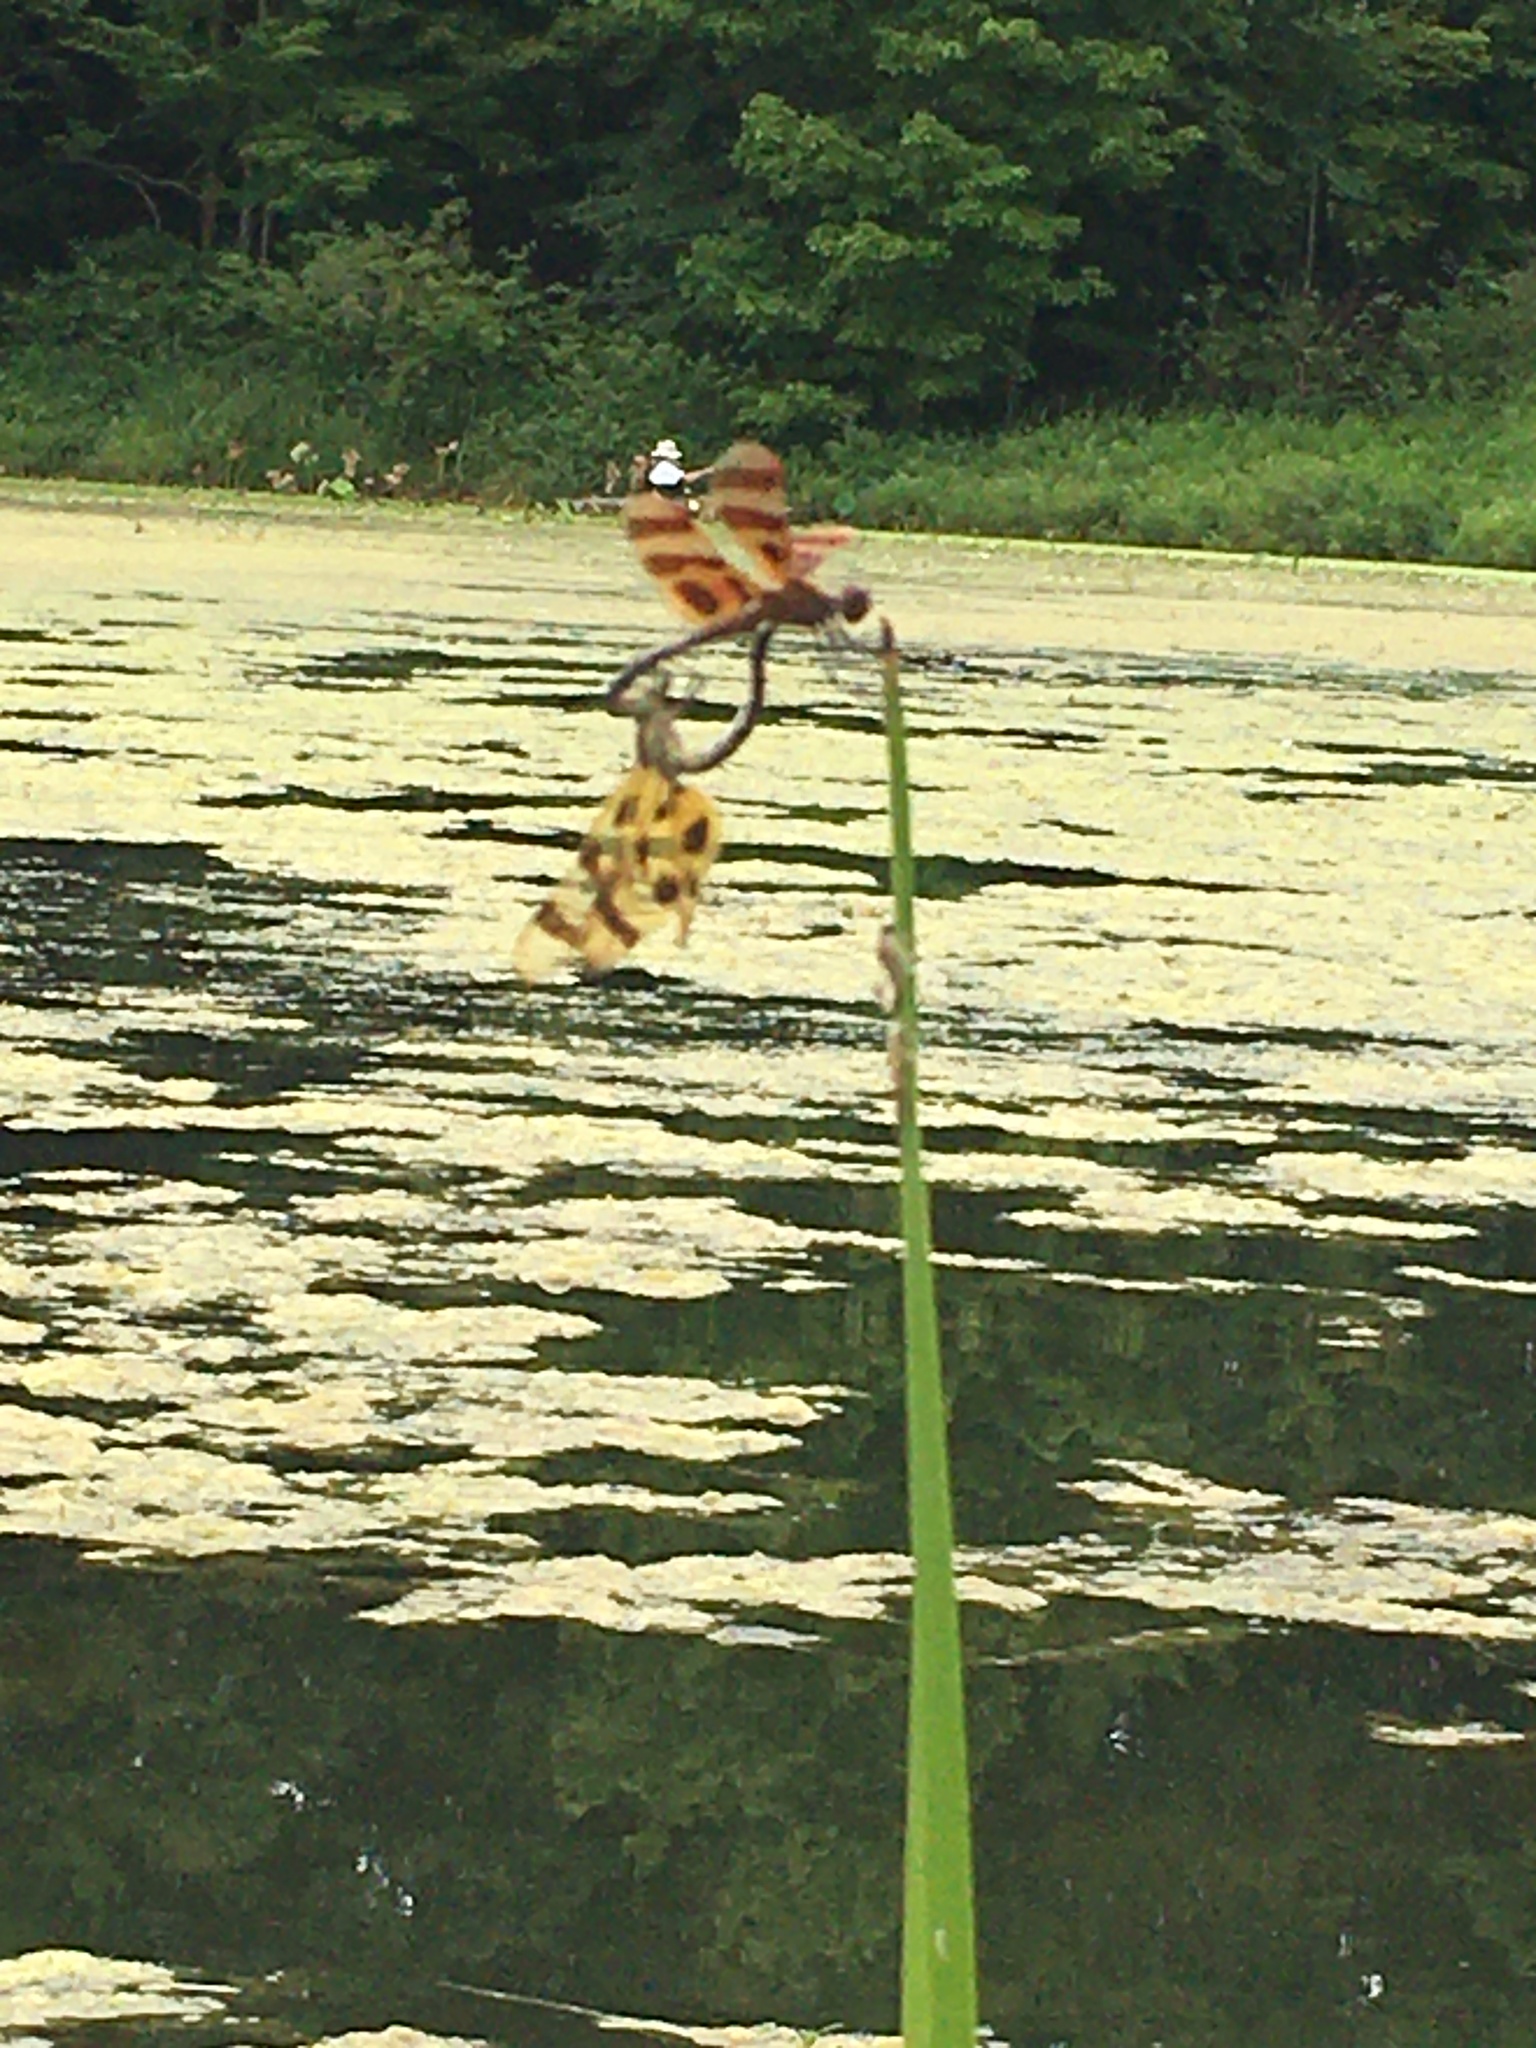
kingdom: Animalia
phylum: Arthropoda
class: Insecta
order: Odonata
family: Libellulidae
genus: Celithemis
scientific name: Celithemis eponina
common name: Halloween pennant
